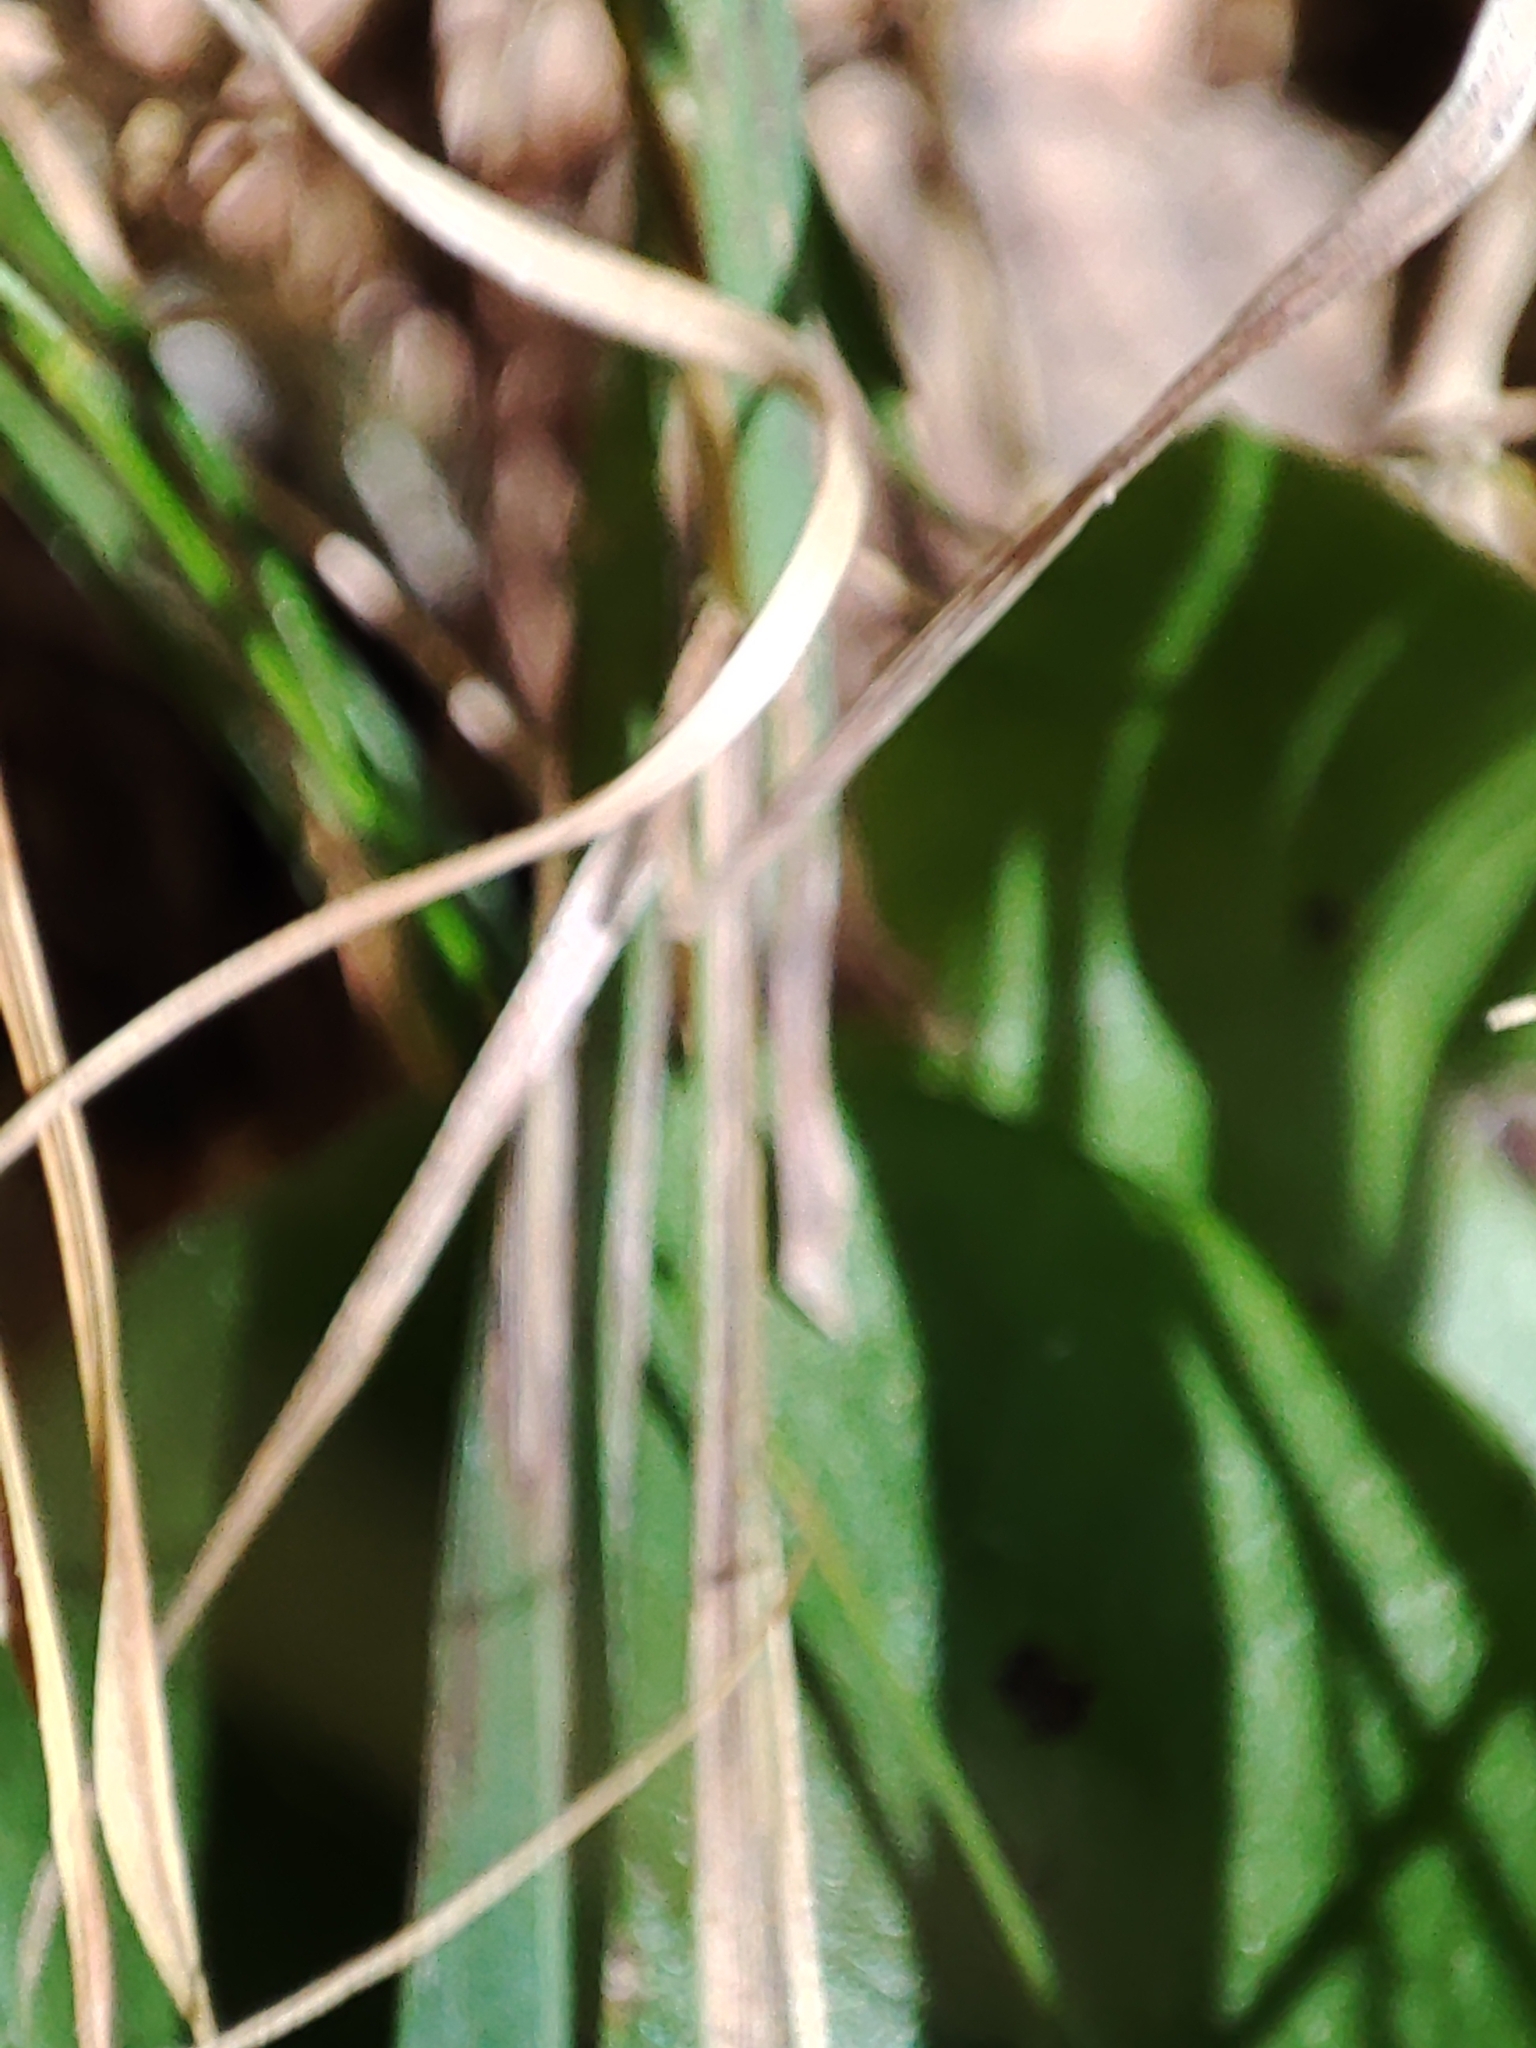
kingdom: Animalia
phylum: Arthropoda
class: Insecta
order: Orthoptera
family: Tettigoniidae
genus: Pholidoptera
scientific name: Pholidoptera griseoaptera
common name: Dark bush-cricket
